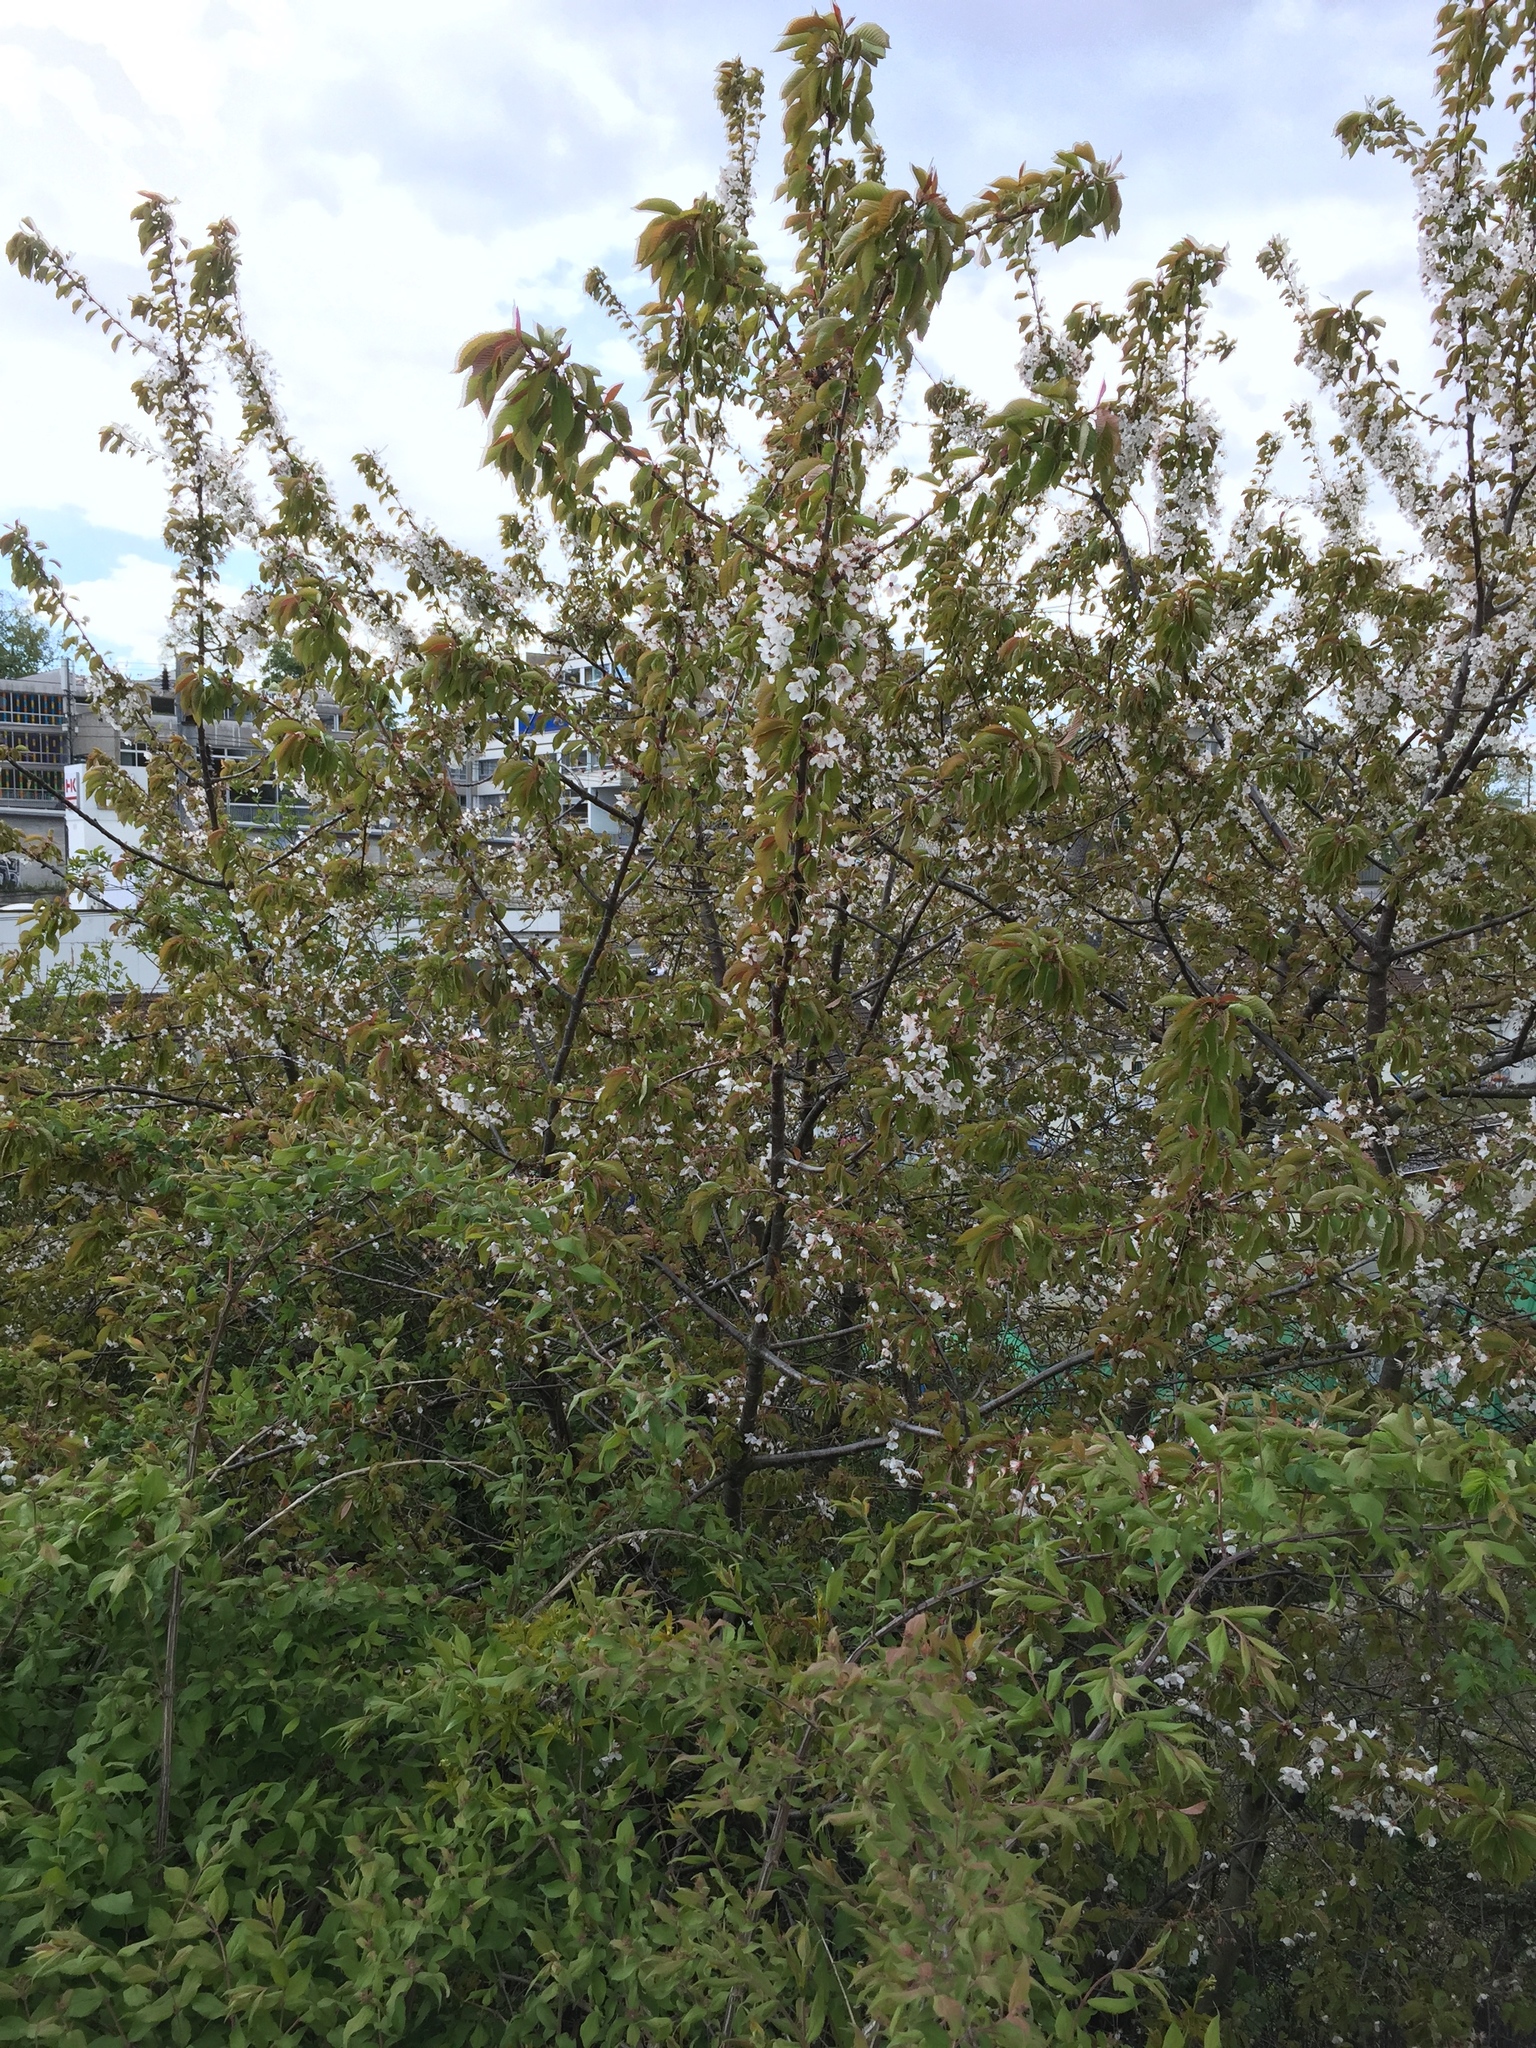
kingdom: Plantae
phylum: Tracheophyta
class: Magnoliopsida
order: Rosales
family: Rosaceae
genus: Prunus
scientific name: Prunus avium
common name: Sweet cherry
